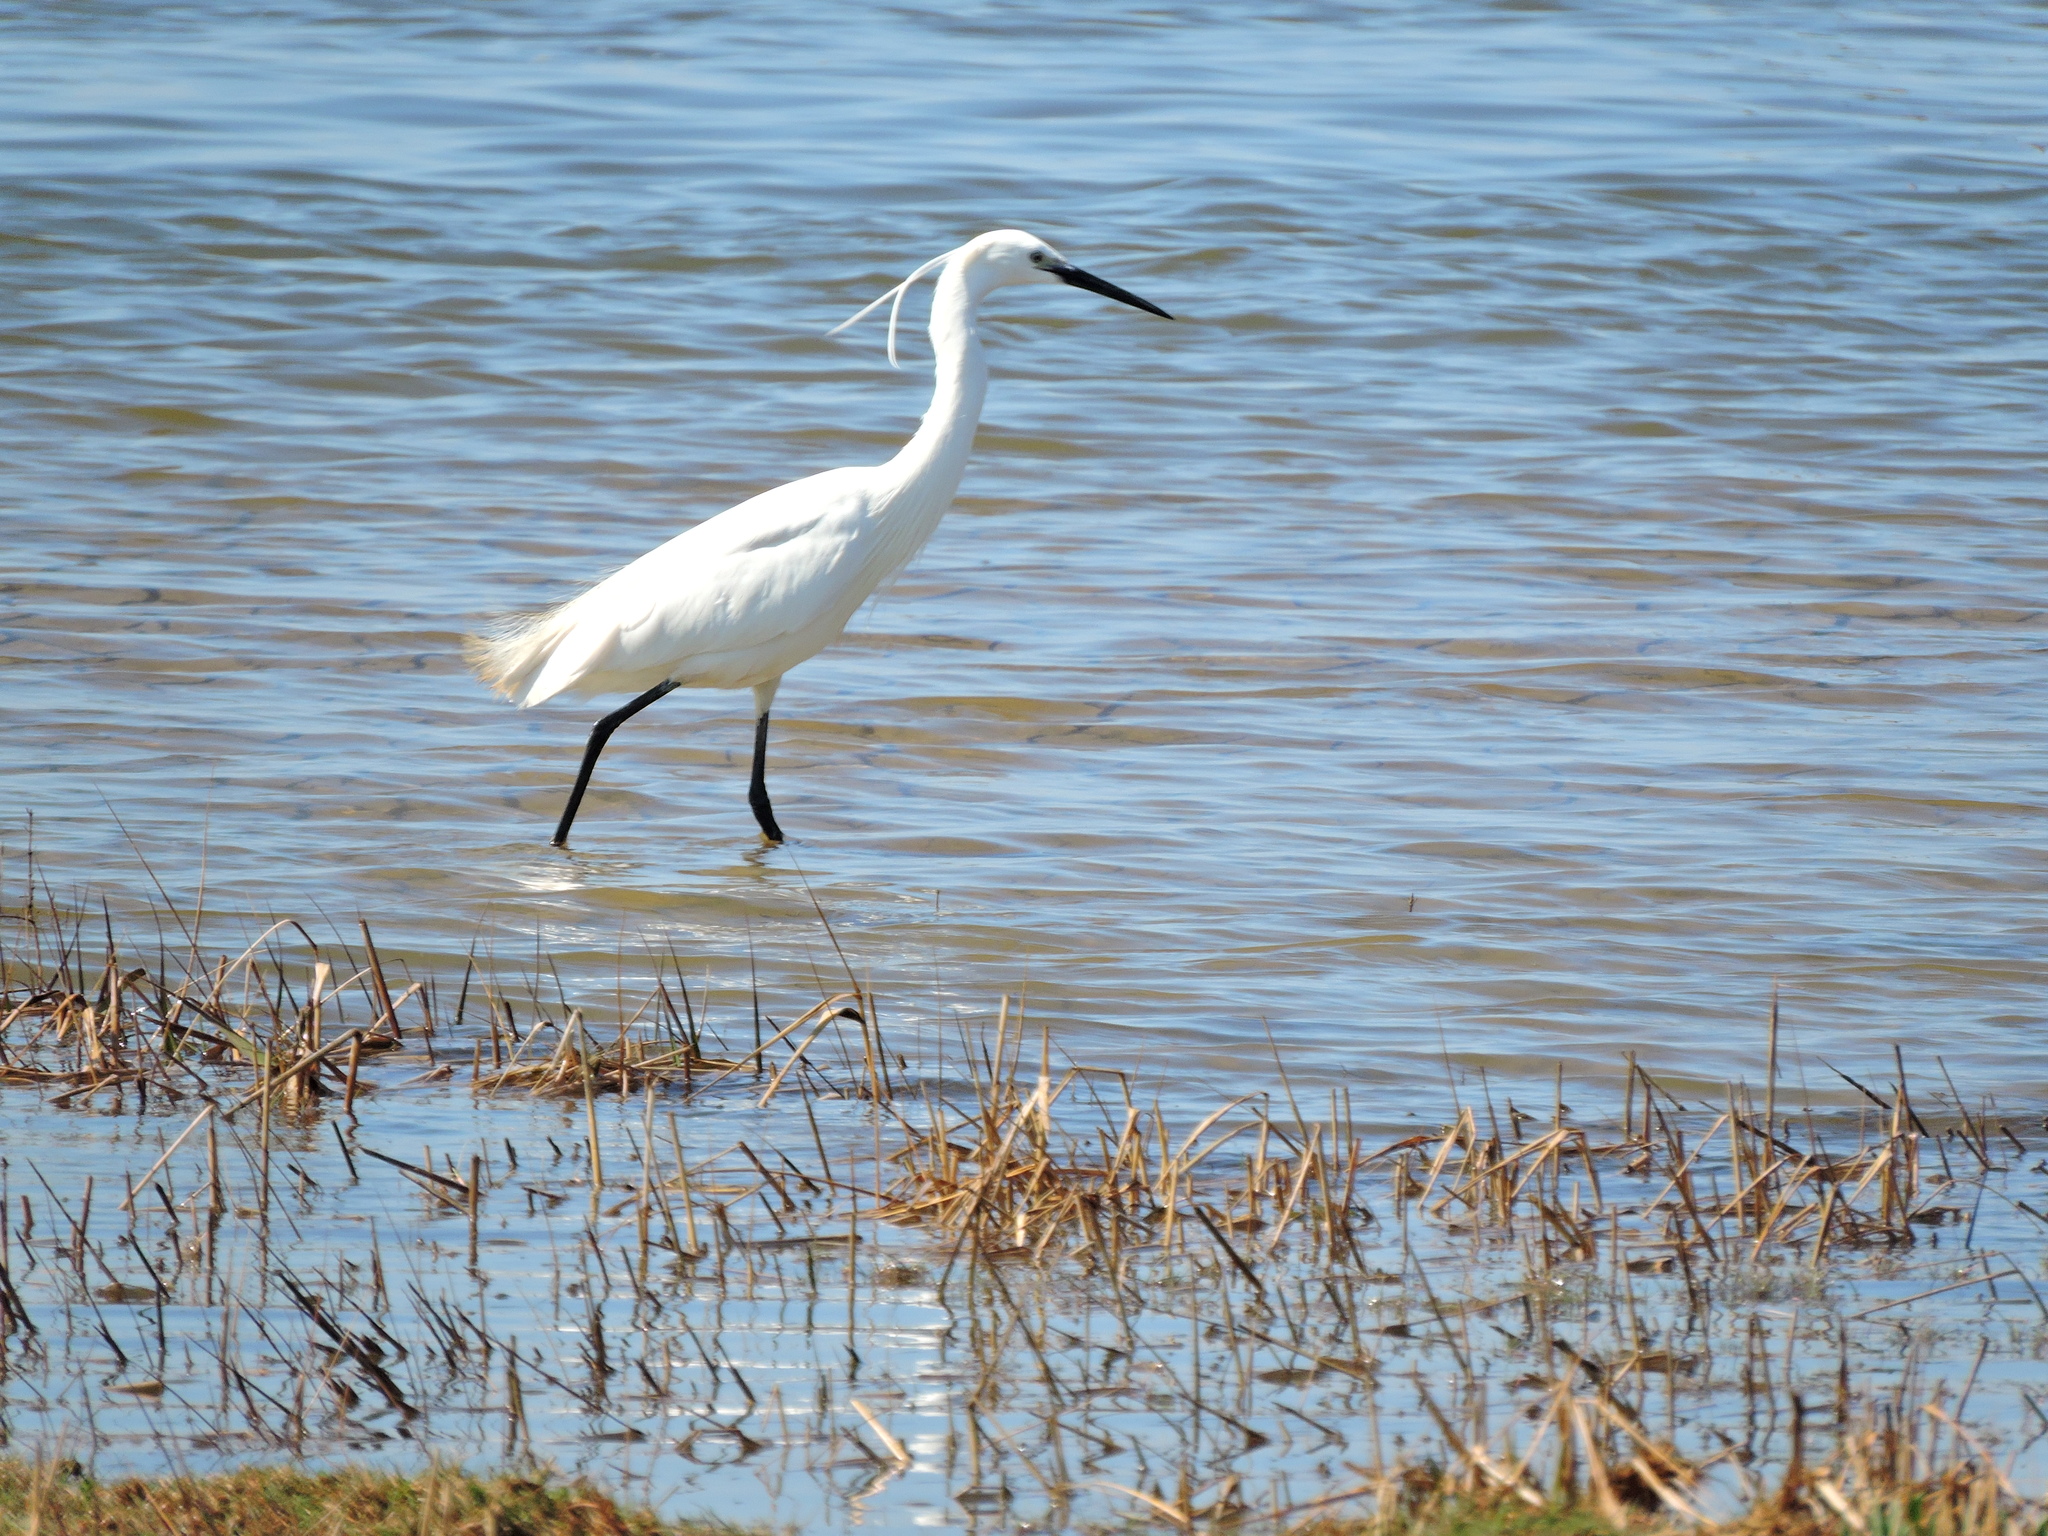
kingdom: Animalia
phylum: Chordata
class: Aves
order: Pelecaniformes
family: Ardeidae
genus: Egretta
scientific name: Egretta garzetta
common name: Little egret
